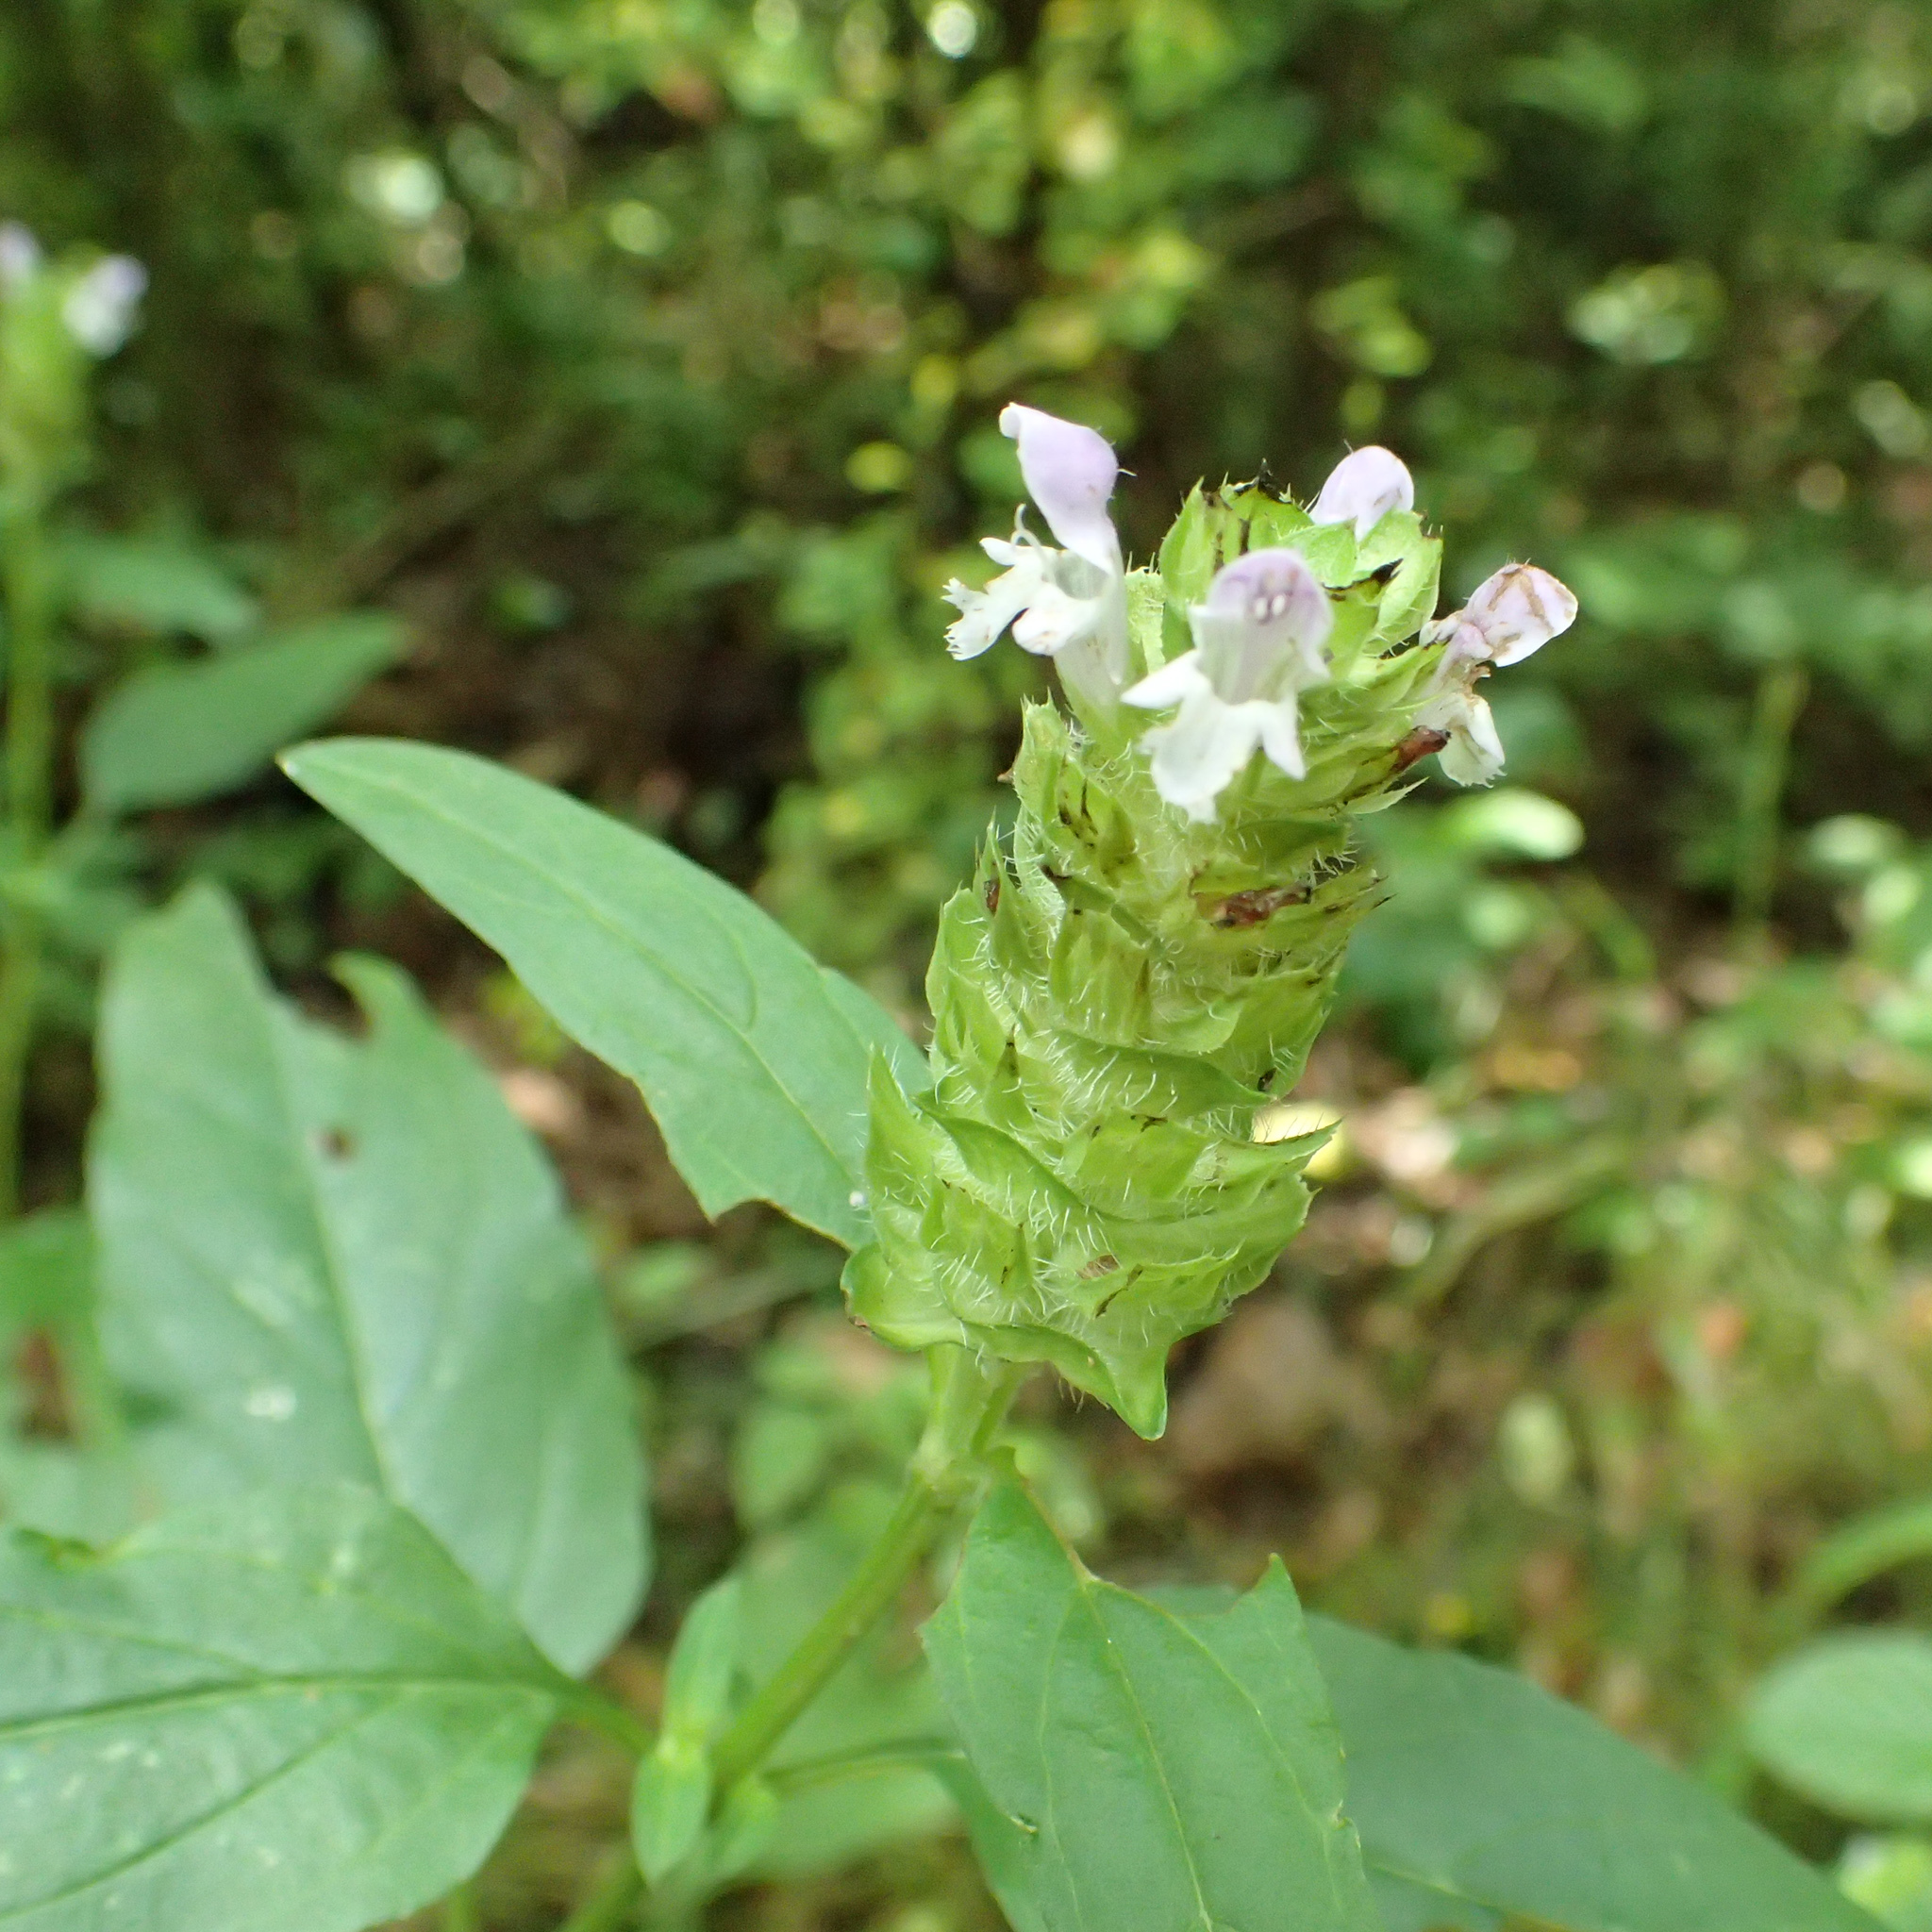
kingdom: Plantae
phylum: Tracheophyta
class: Magnoliopsida
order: Lamiales
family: Lamiaceae
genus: Prunella
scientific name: Prunella vulgaris
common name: Heal-all
